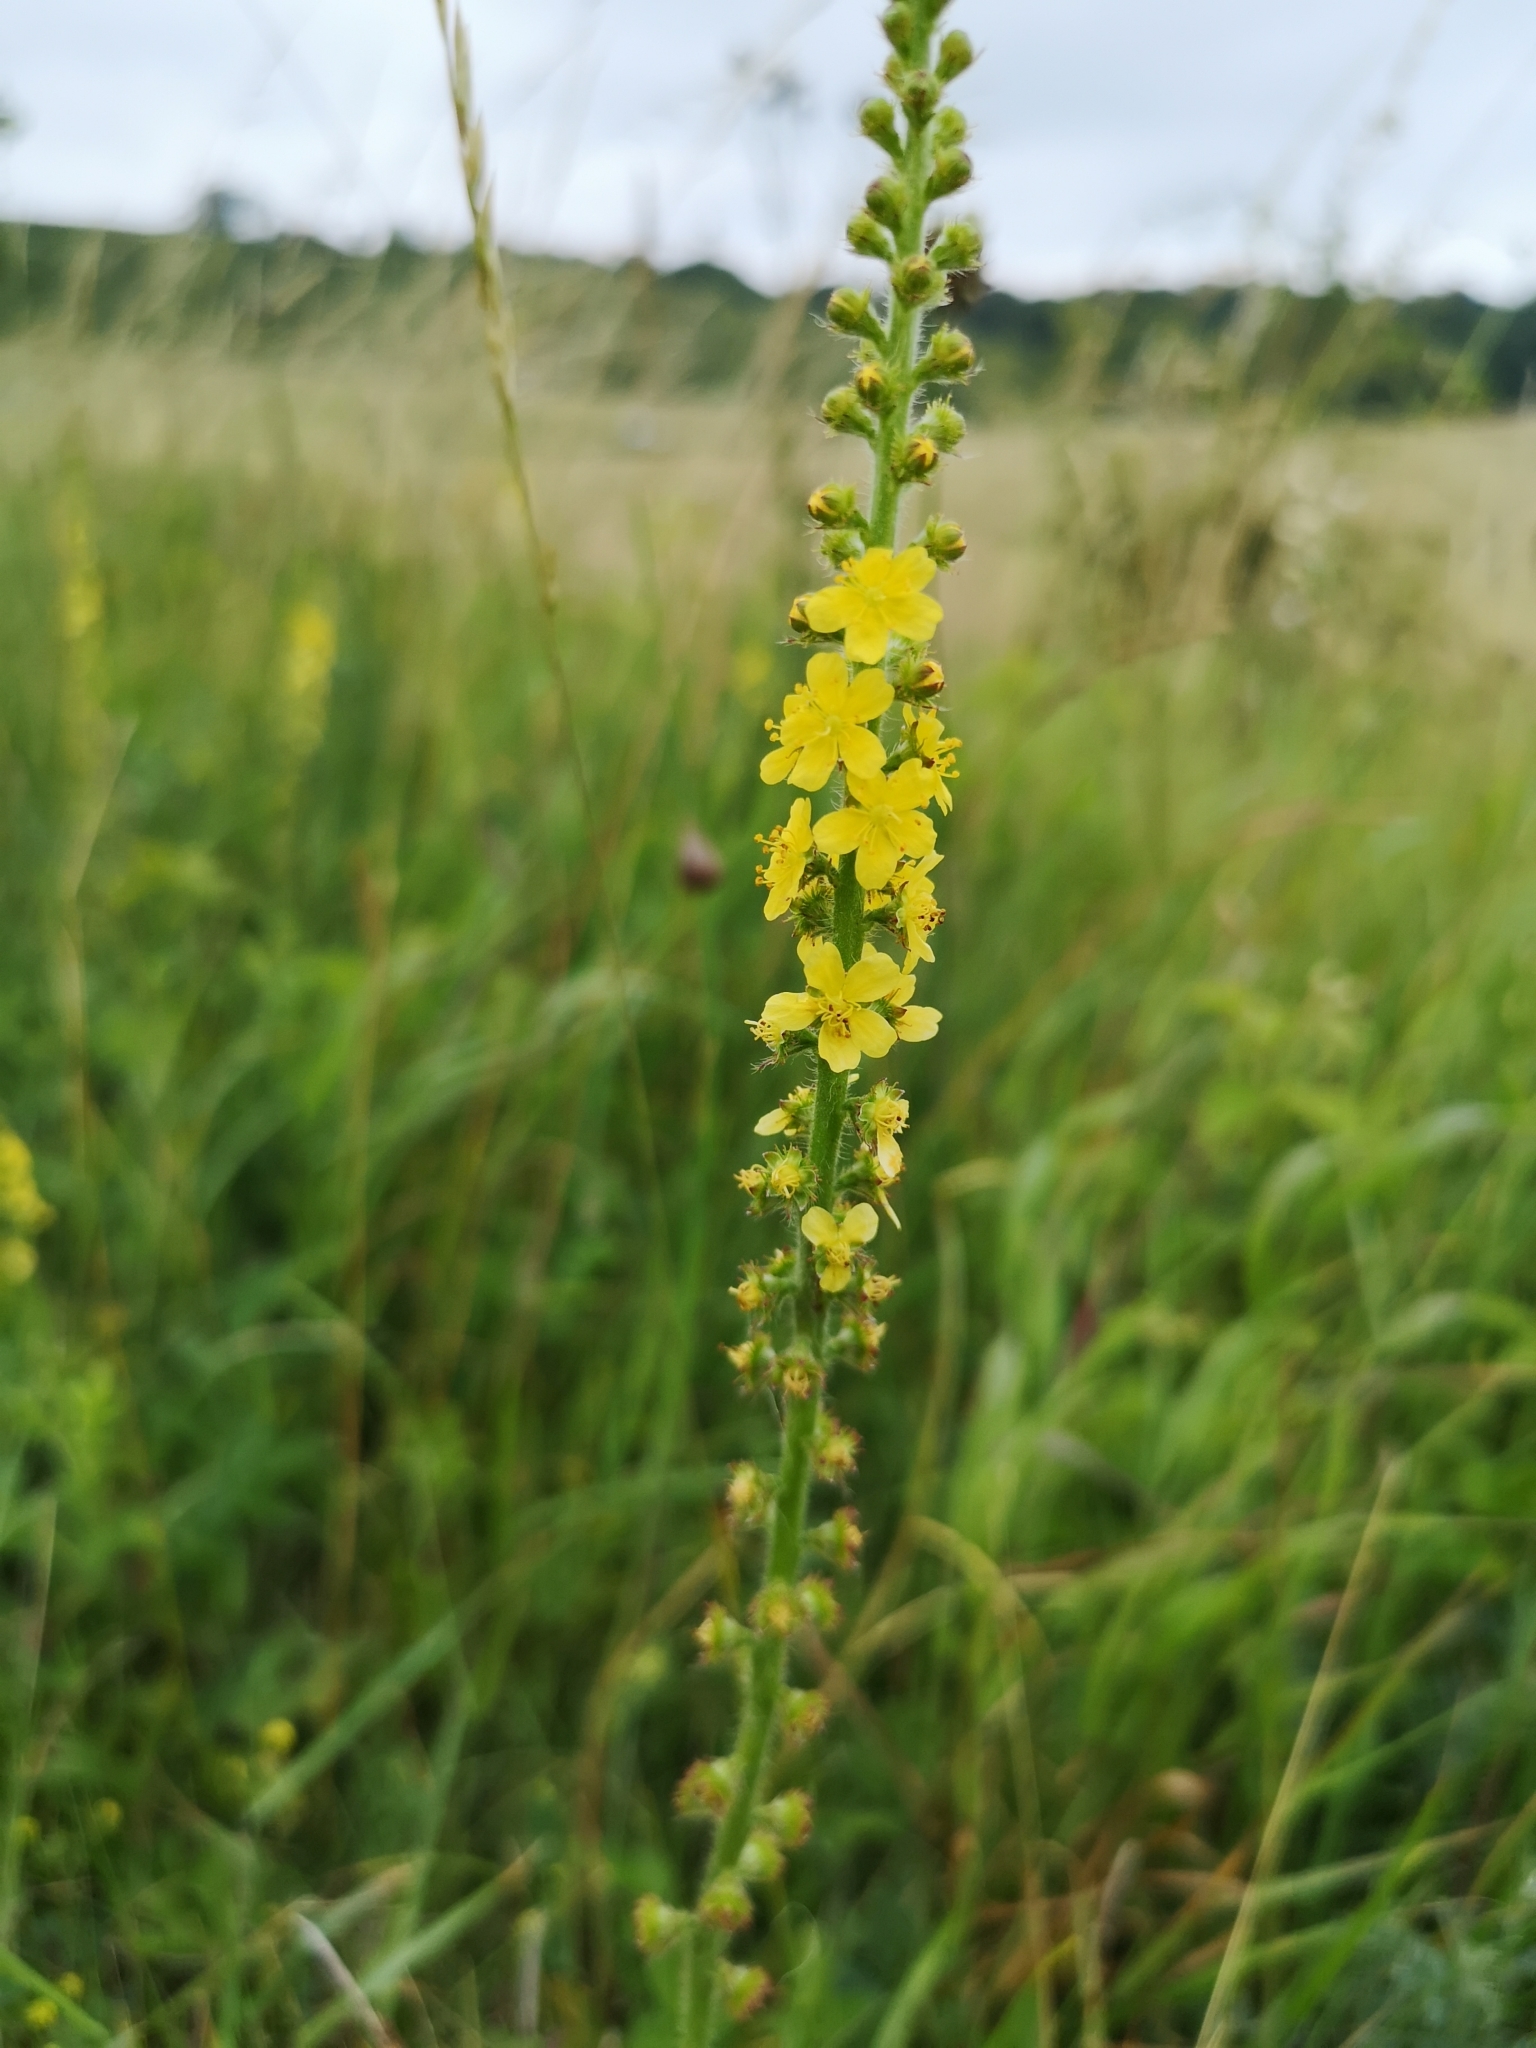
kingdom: Plantae
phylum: Tracheophyta
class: Magnoliopsida
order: Rosales
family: Rosaceae
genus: Agrimonia
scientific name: Agrimonia eupatoria
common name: Agrimony
